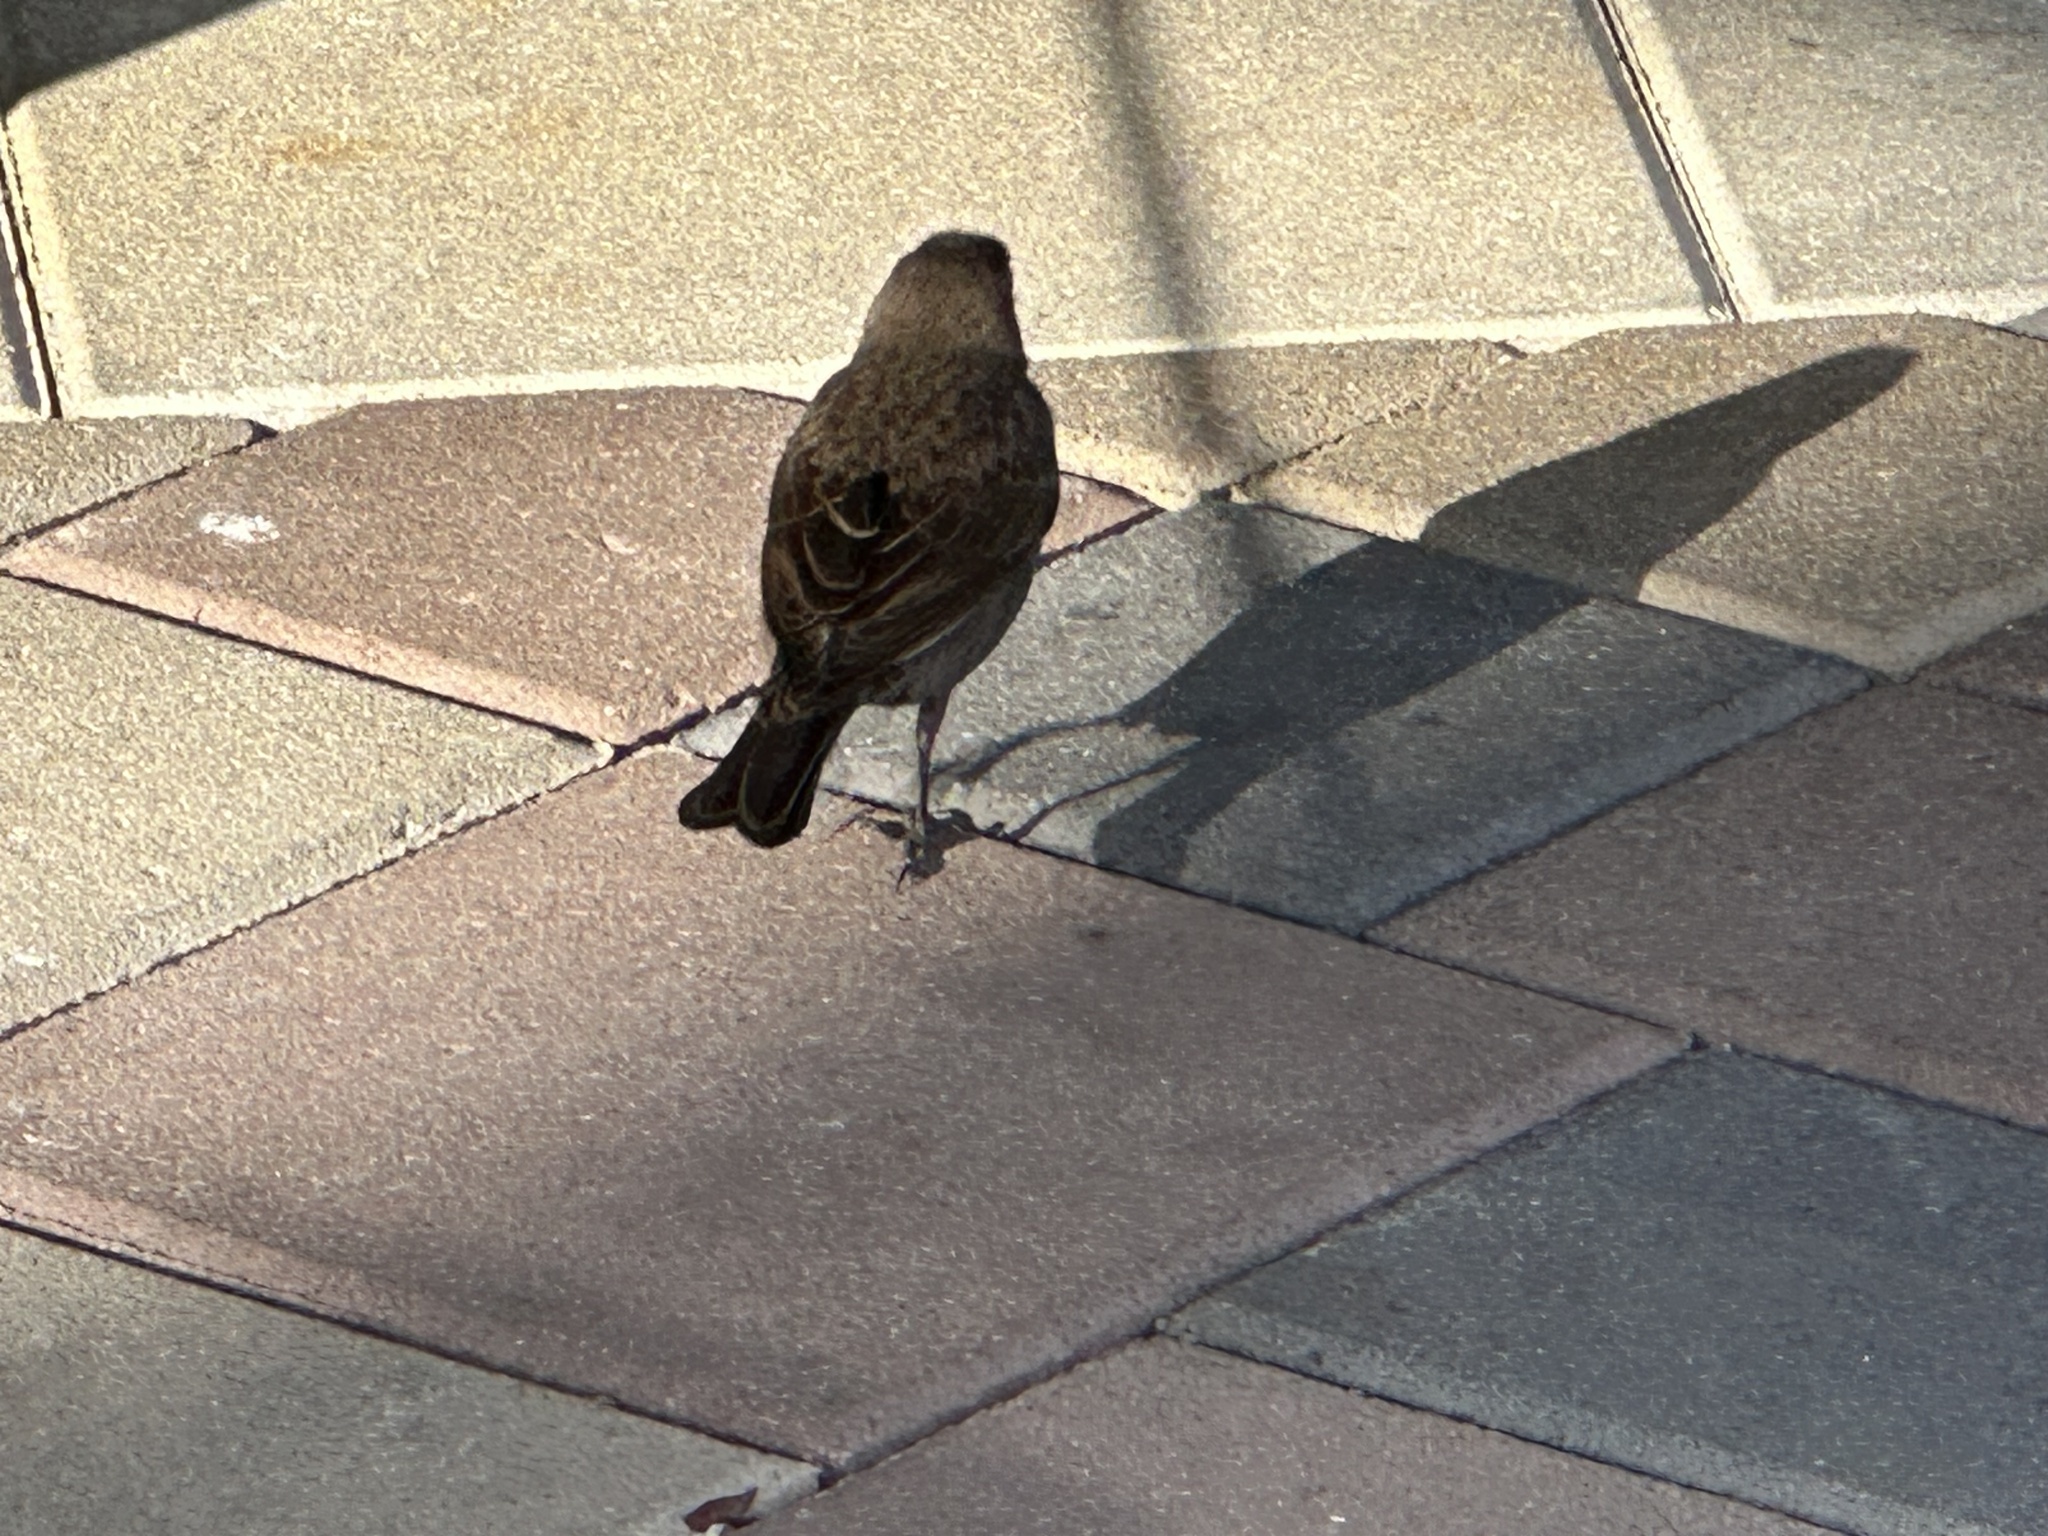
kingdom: Animalia
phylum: Chordata
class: Aves
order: Passeriformes
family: Icteridae
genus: Molothrus
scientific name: Molothrus ater
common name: Brown-headed cowbird
